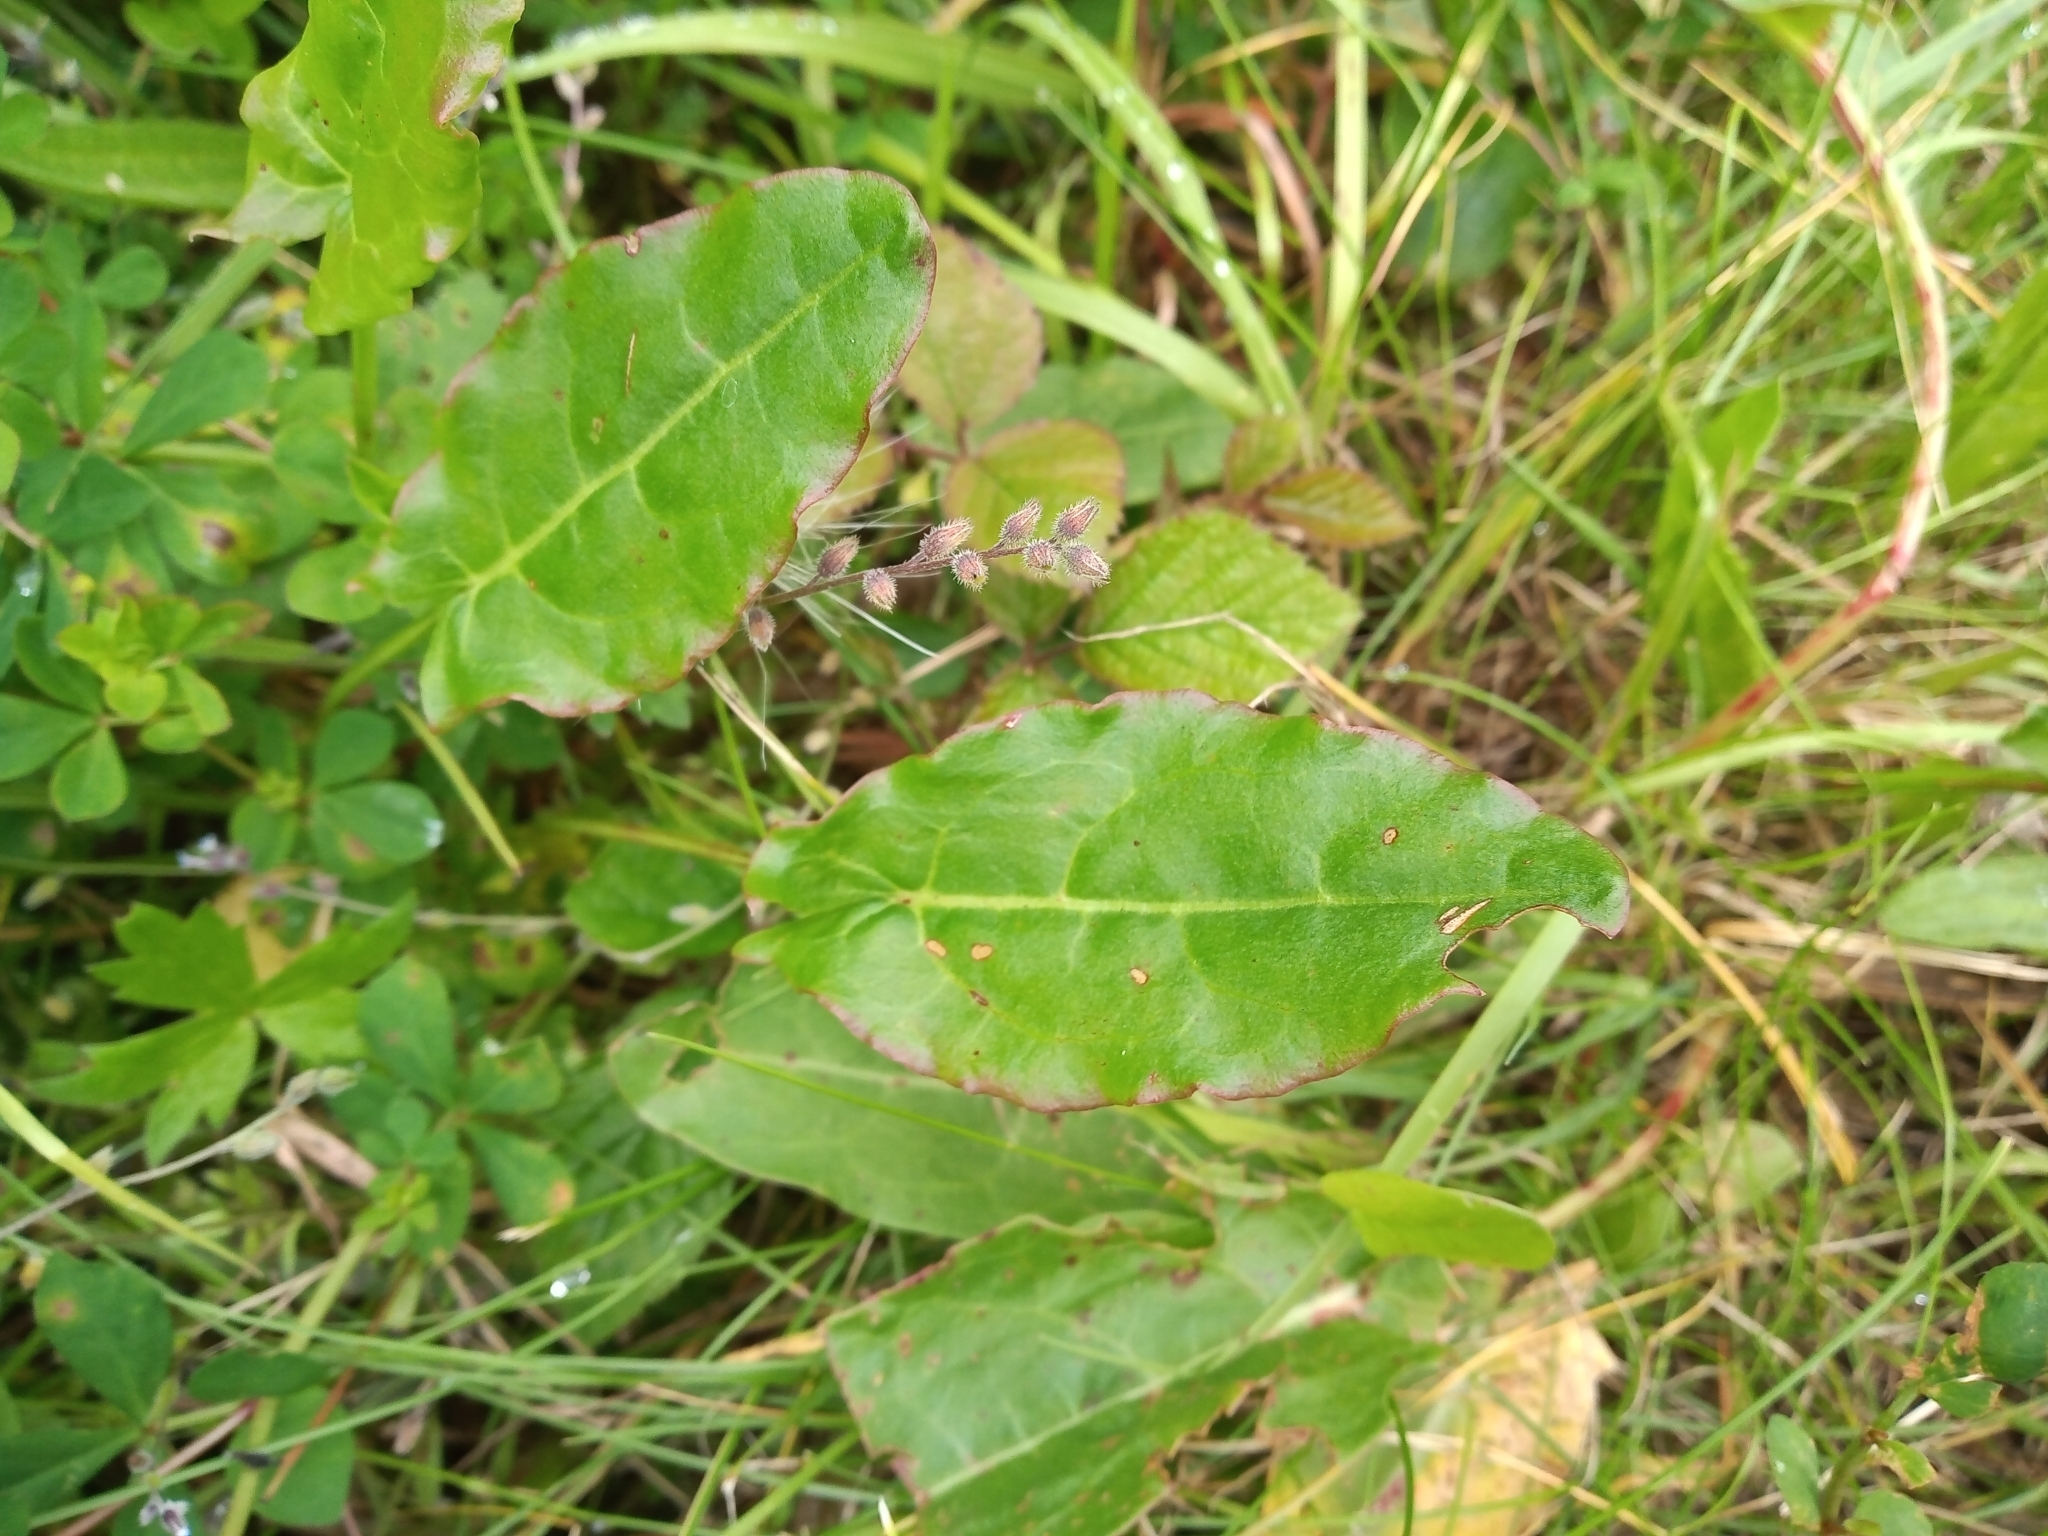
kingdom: Plantae
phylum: Tracheophyta
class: Magnoliopsida
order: Caryophyllales
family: Polygonaceae
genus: Rumex
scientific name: Rumex acetosa
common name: Garden sorrel
